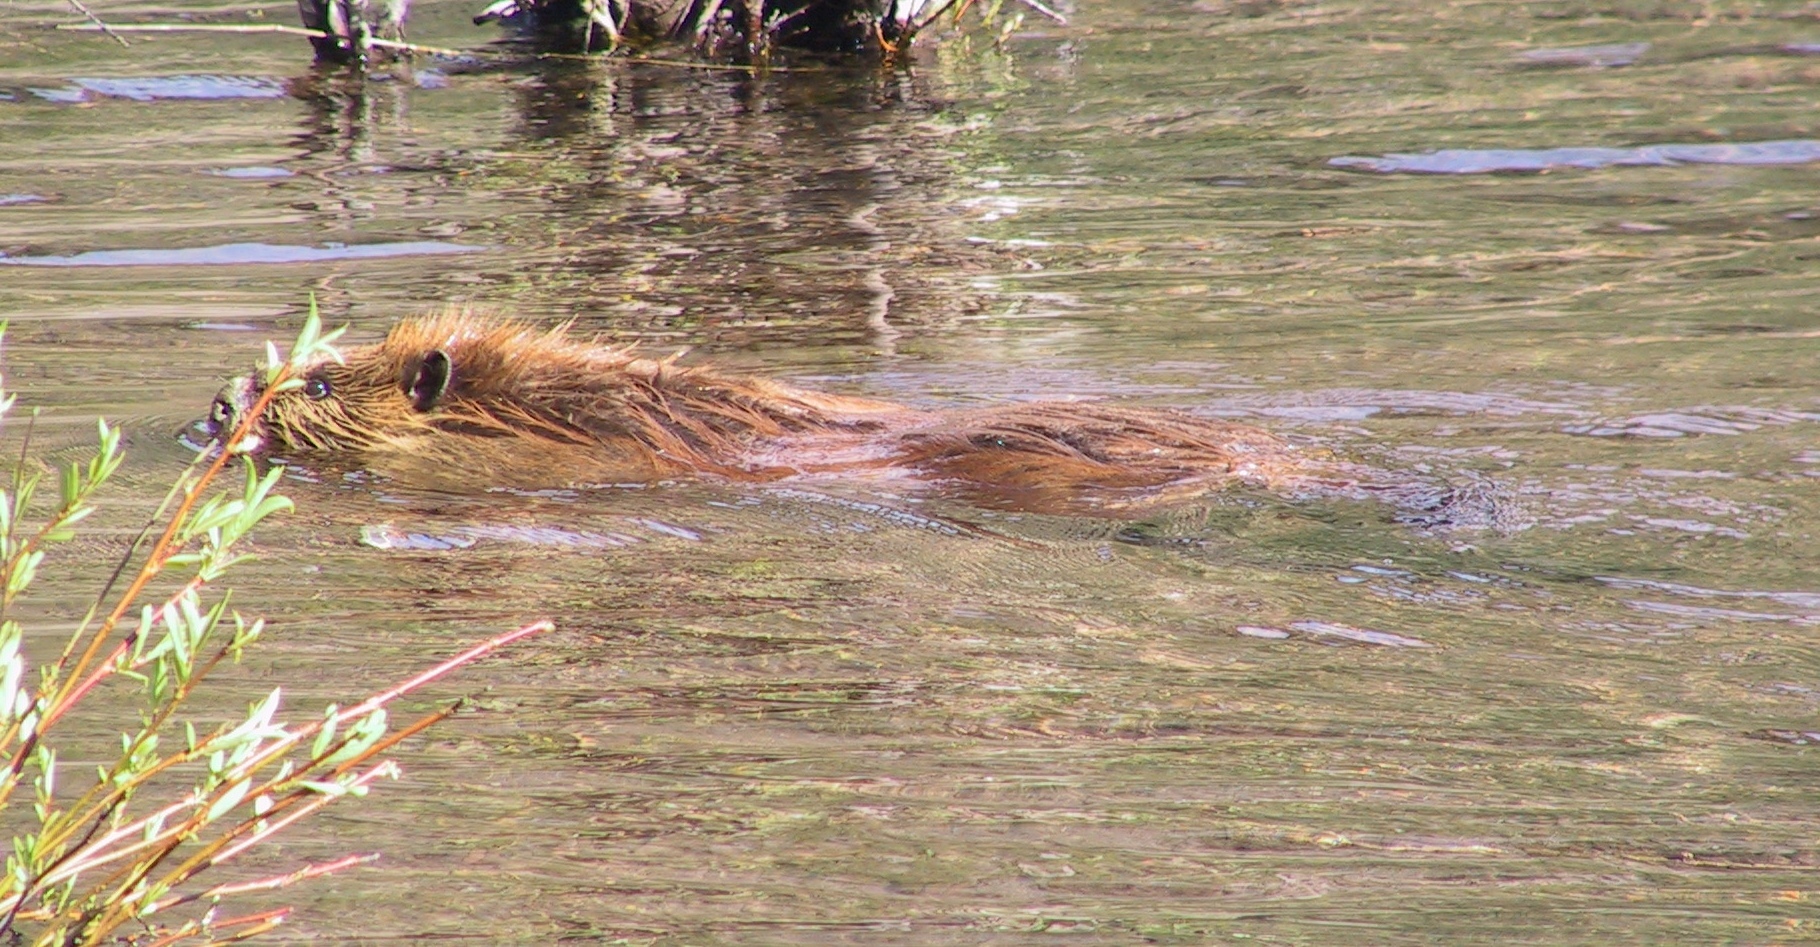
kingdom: Animalia
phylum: Chordata
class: Mammalia
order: Rodentia
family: Castoridae
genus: Castor
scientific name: Castor canadensis
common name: American beaver
